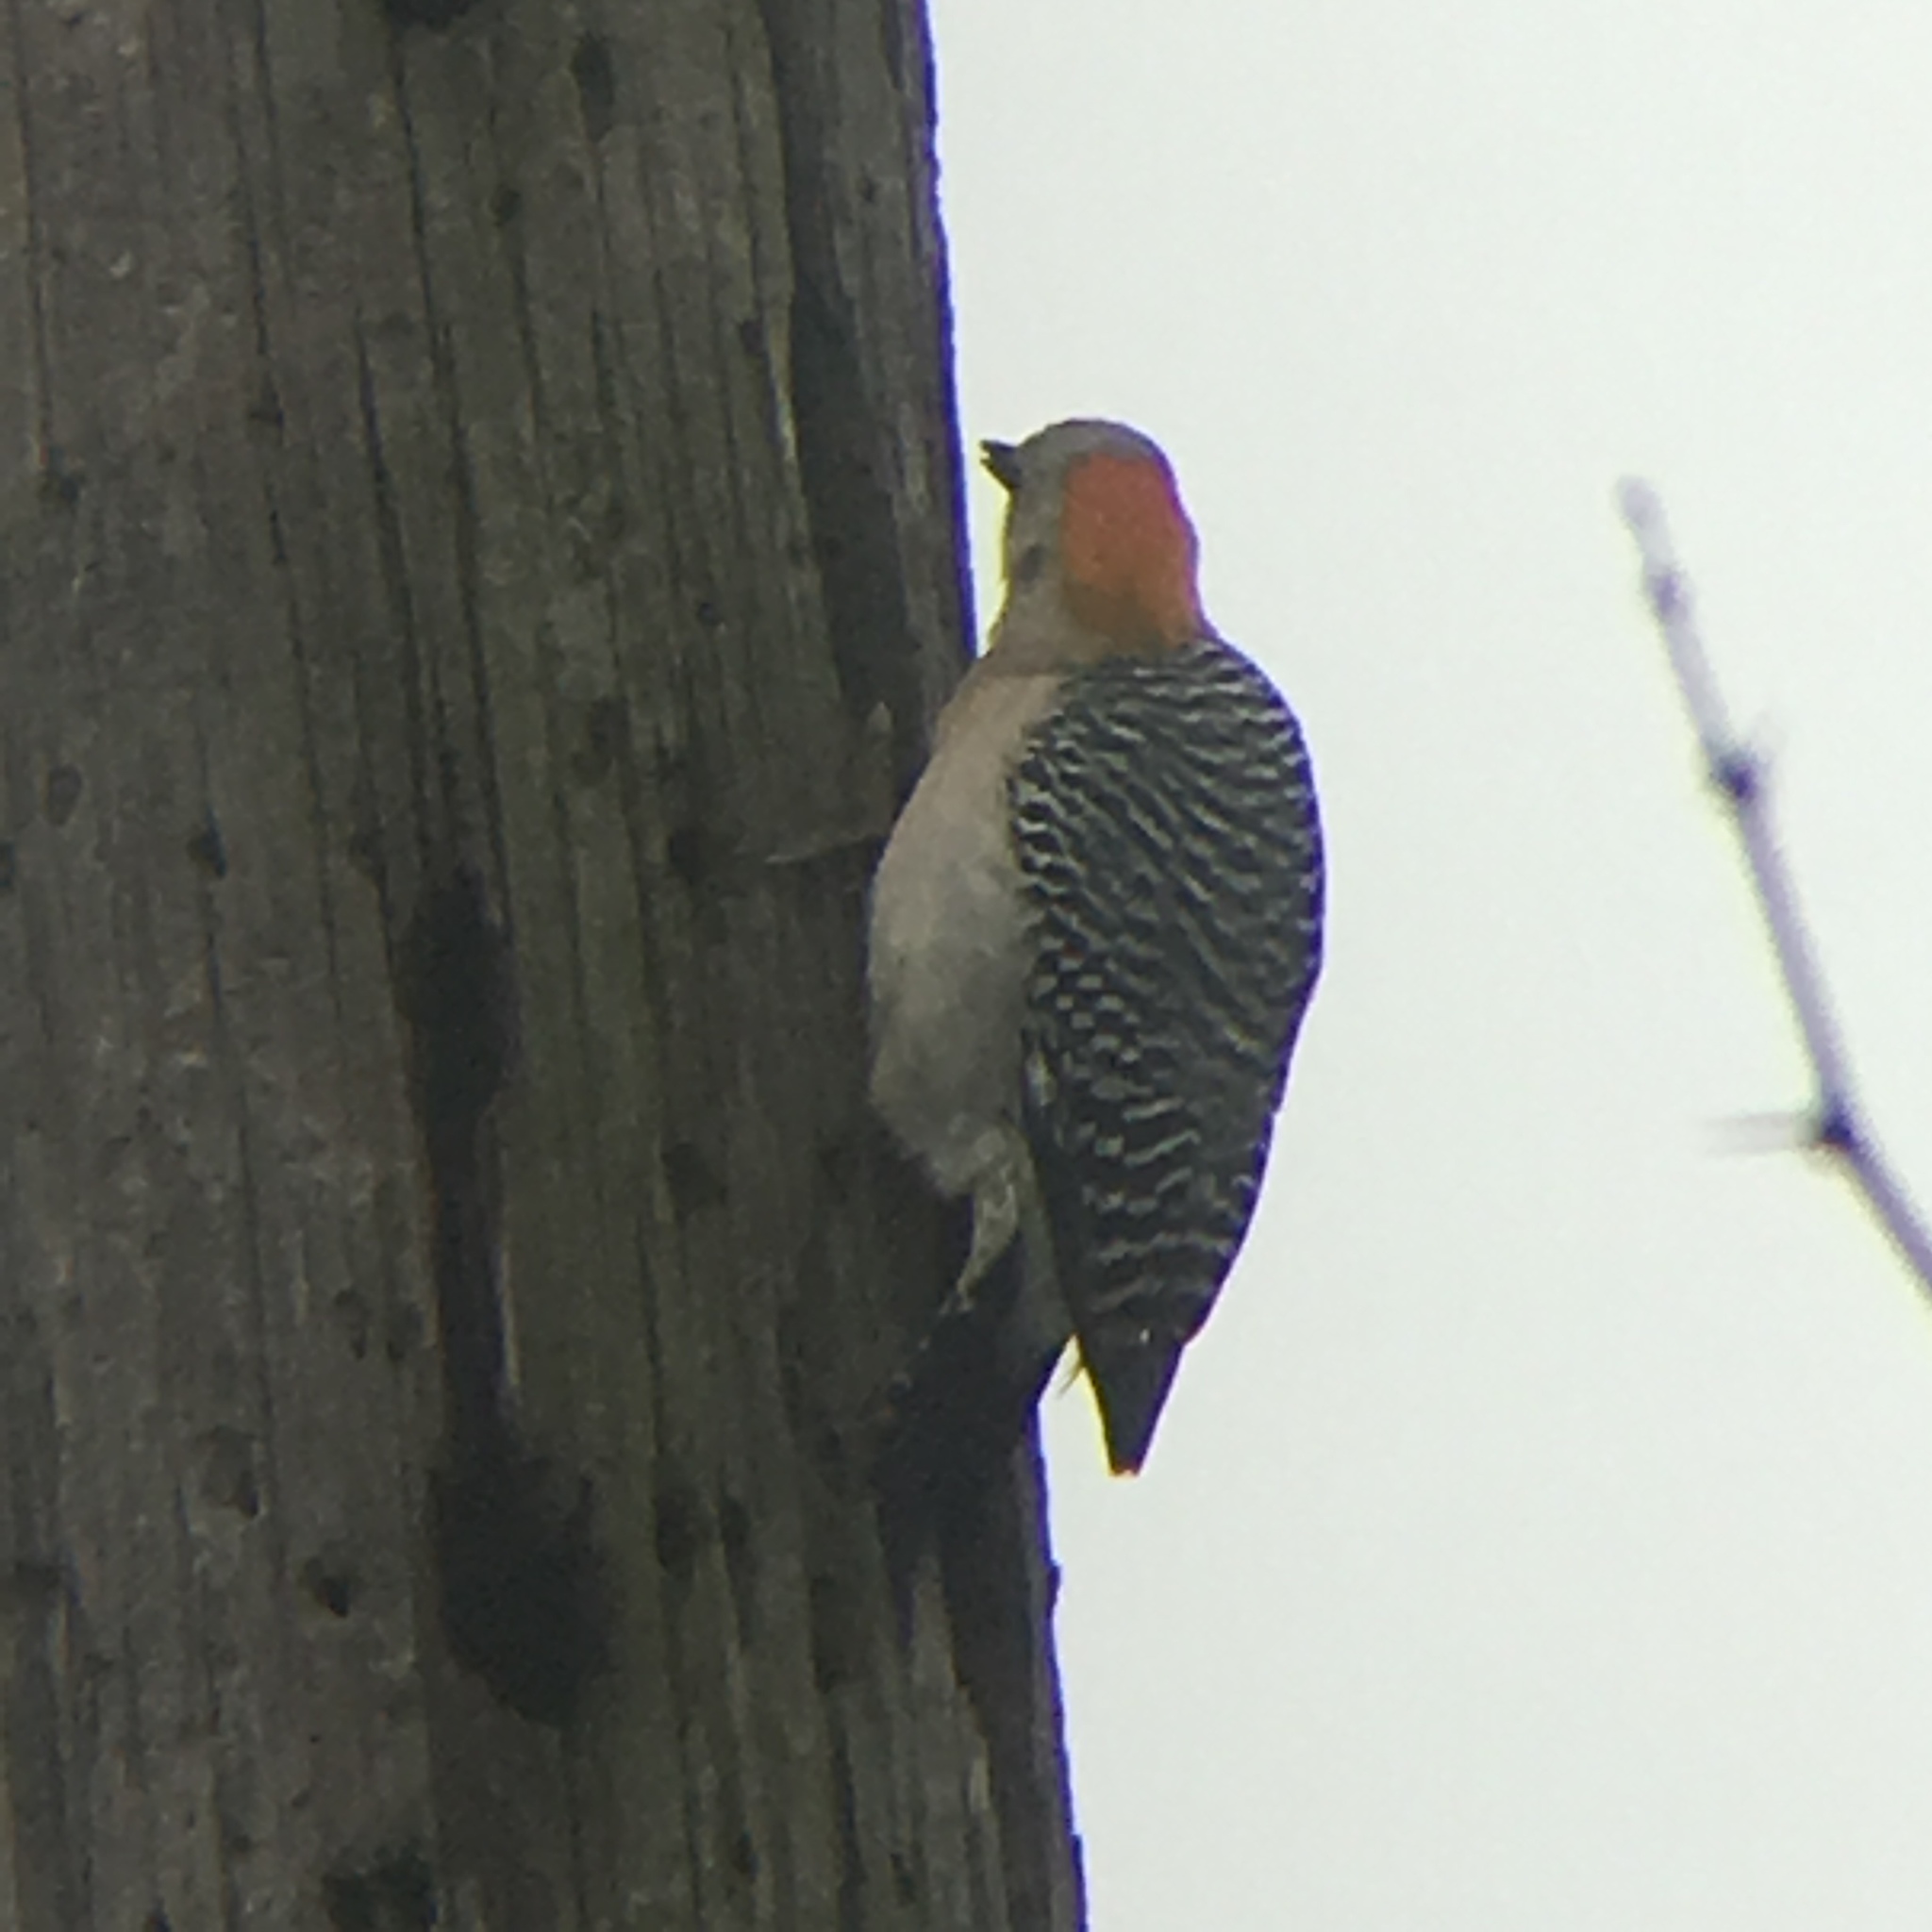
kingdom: Animalia
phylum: Chordata
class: Aves
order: Piciformes
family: Picidae
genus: Melanerpes
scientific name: Melanerpes aurifrons
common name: Golden-fronted woodpecker
